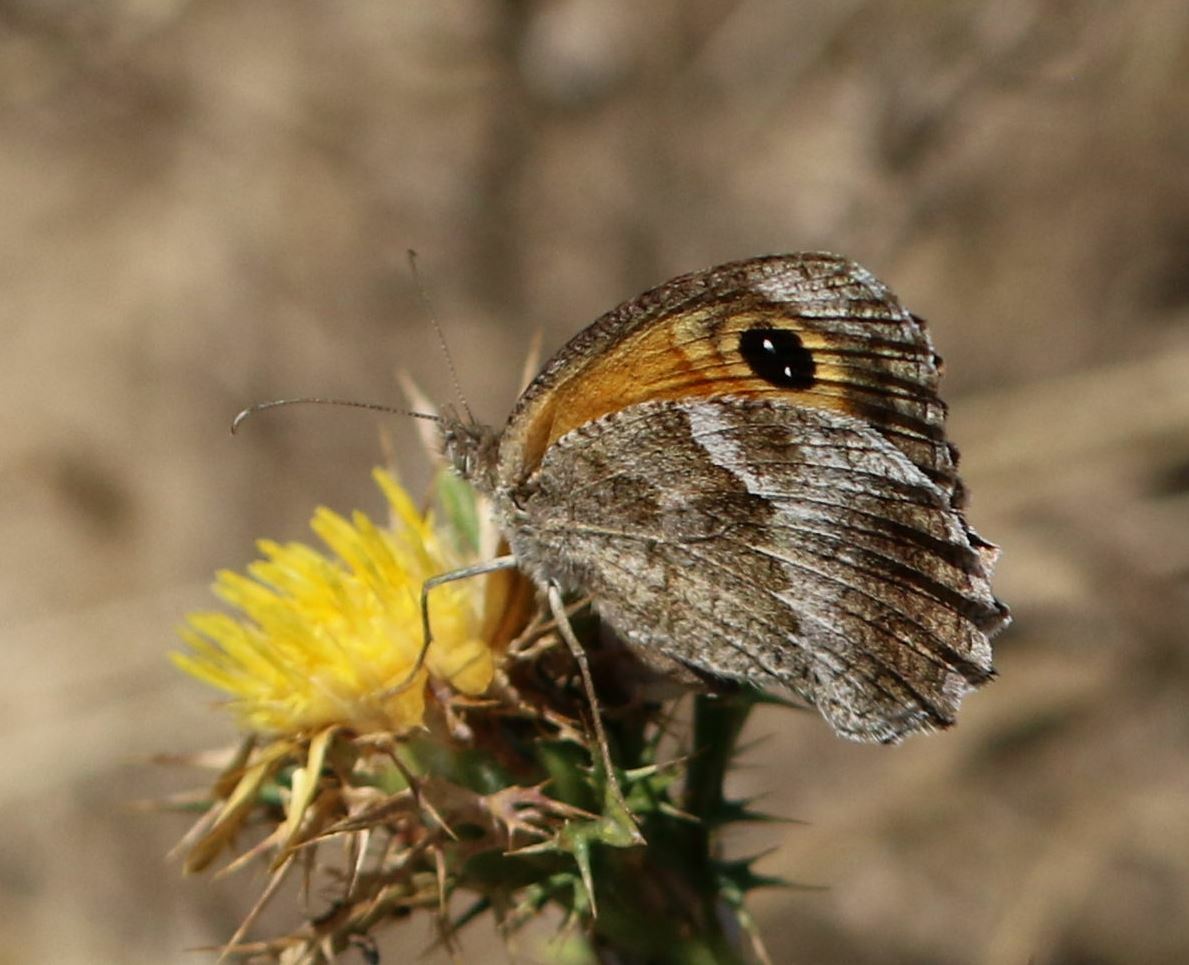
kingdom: Animalia
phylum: Arthropoda
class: Insecta
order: Lepidoptera
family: Nymphalidae
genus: Pyronia
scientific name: Pyronia cecilia
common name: Southern gatekeeper
